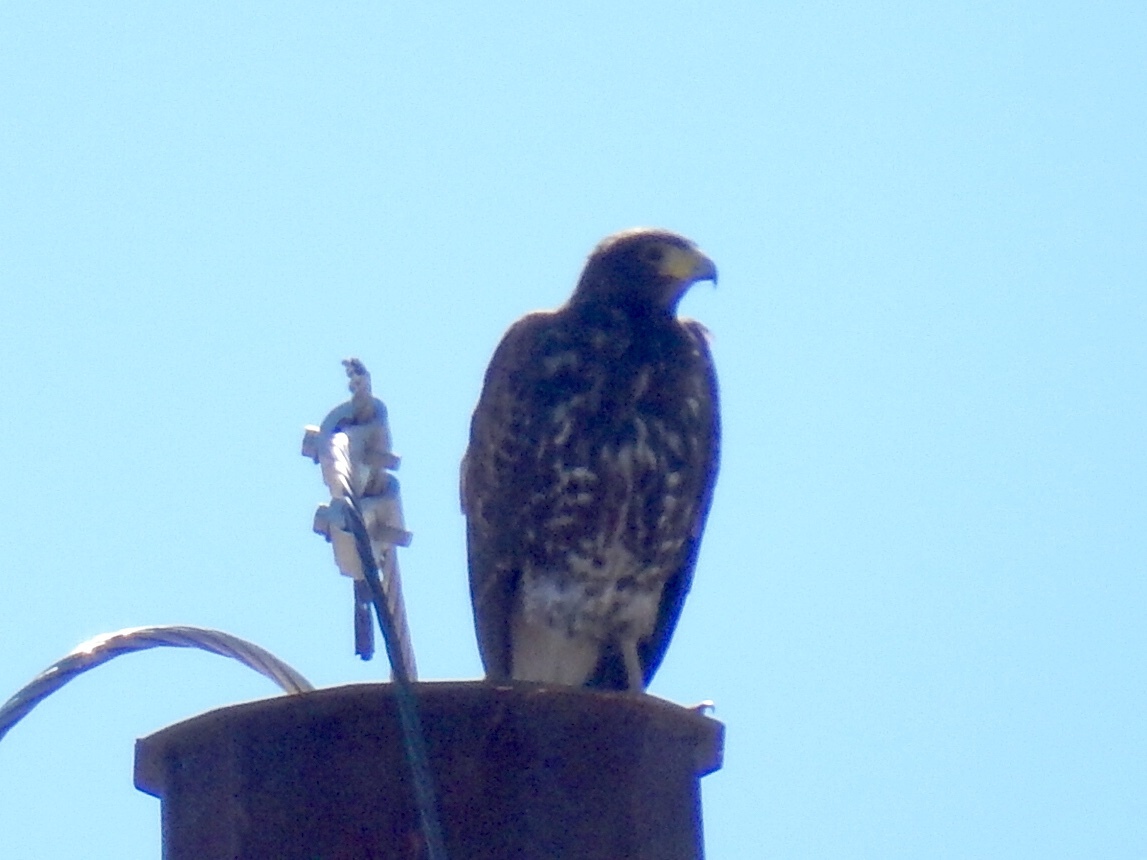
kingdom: Animalia
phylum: Chordata
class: Aves
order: Accipitriformes
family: Accipitridae
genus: Parabuteo
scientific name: Parabuteo unicinctus
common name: Harris's hawk
